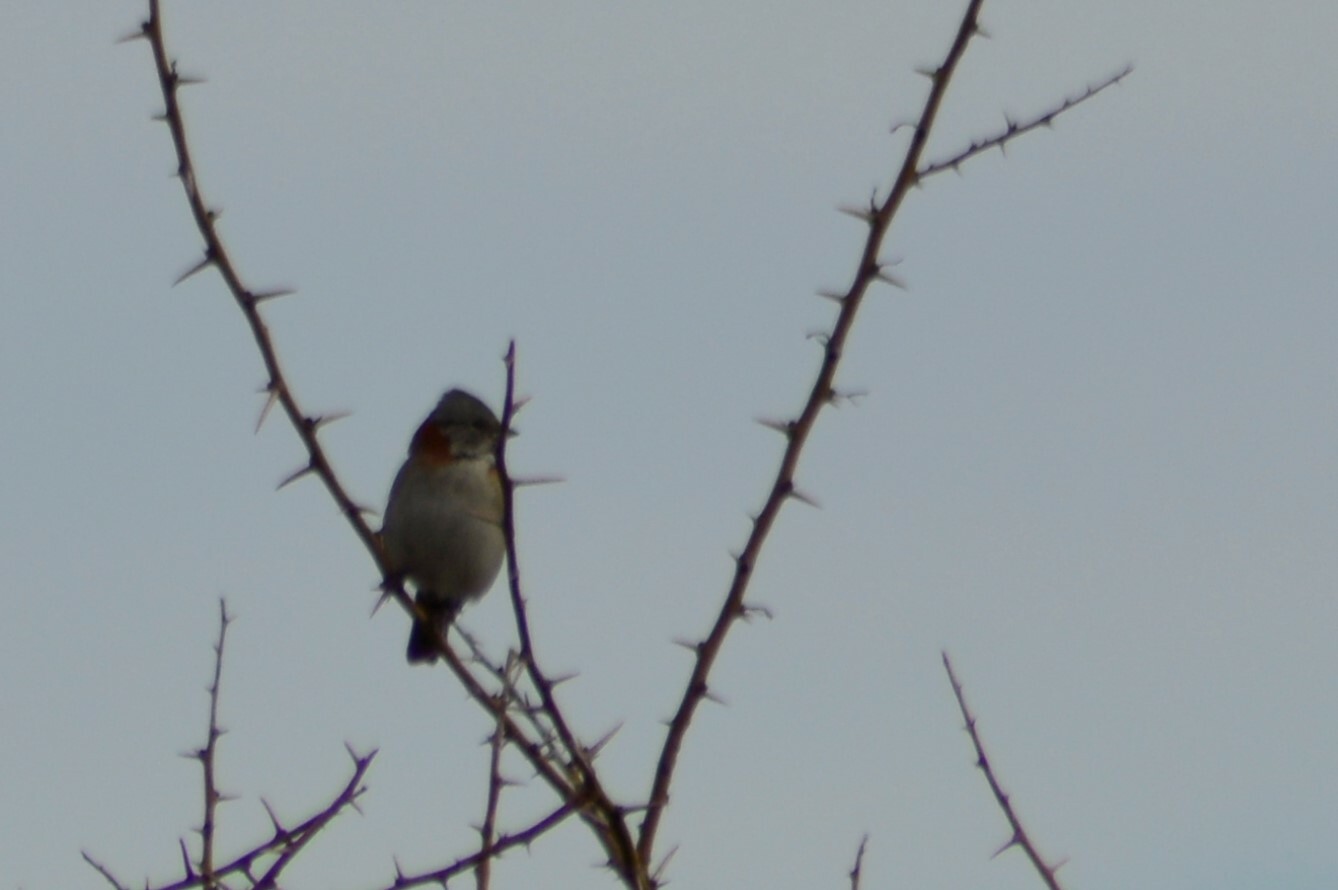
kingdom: Animalia
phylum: Chordata
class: Aves
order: Passeriformes
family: Passerellidae
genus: Zonotrichia
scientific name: Zonotrichia capensis
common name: Rufous-collared sparrow
